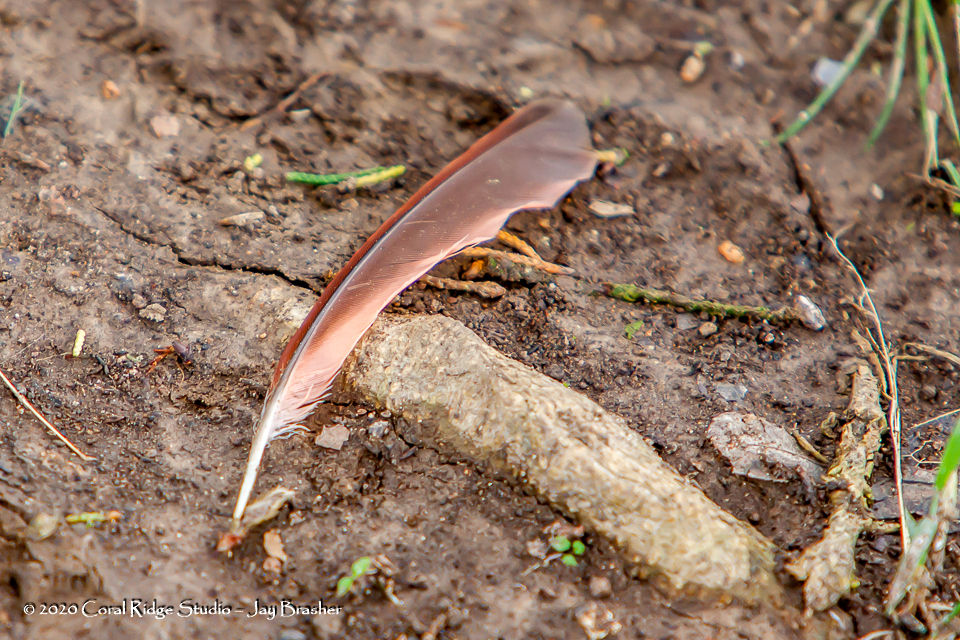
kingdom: Animalia
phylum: Chordata
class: Aves
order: Passeriformes
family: Cardinalidae
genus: Cardinalis
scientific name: Cardinalis cardinalis
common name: Northern cardinal
